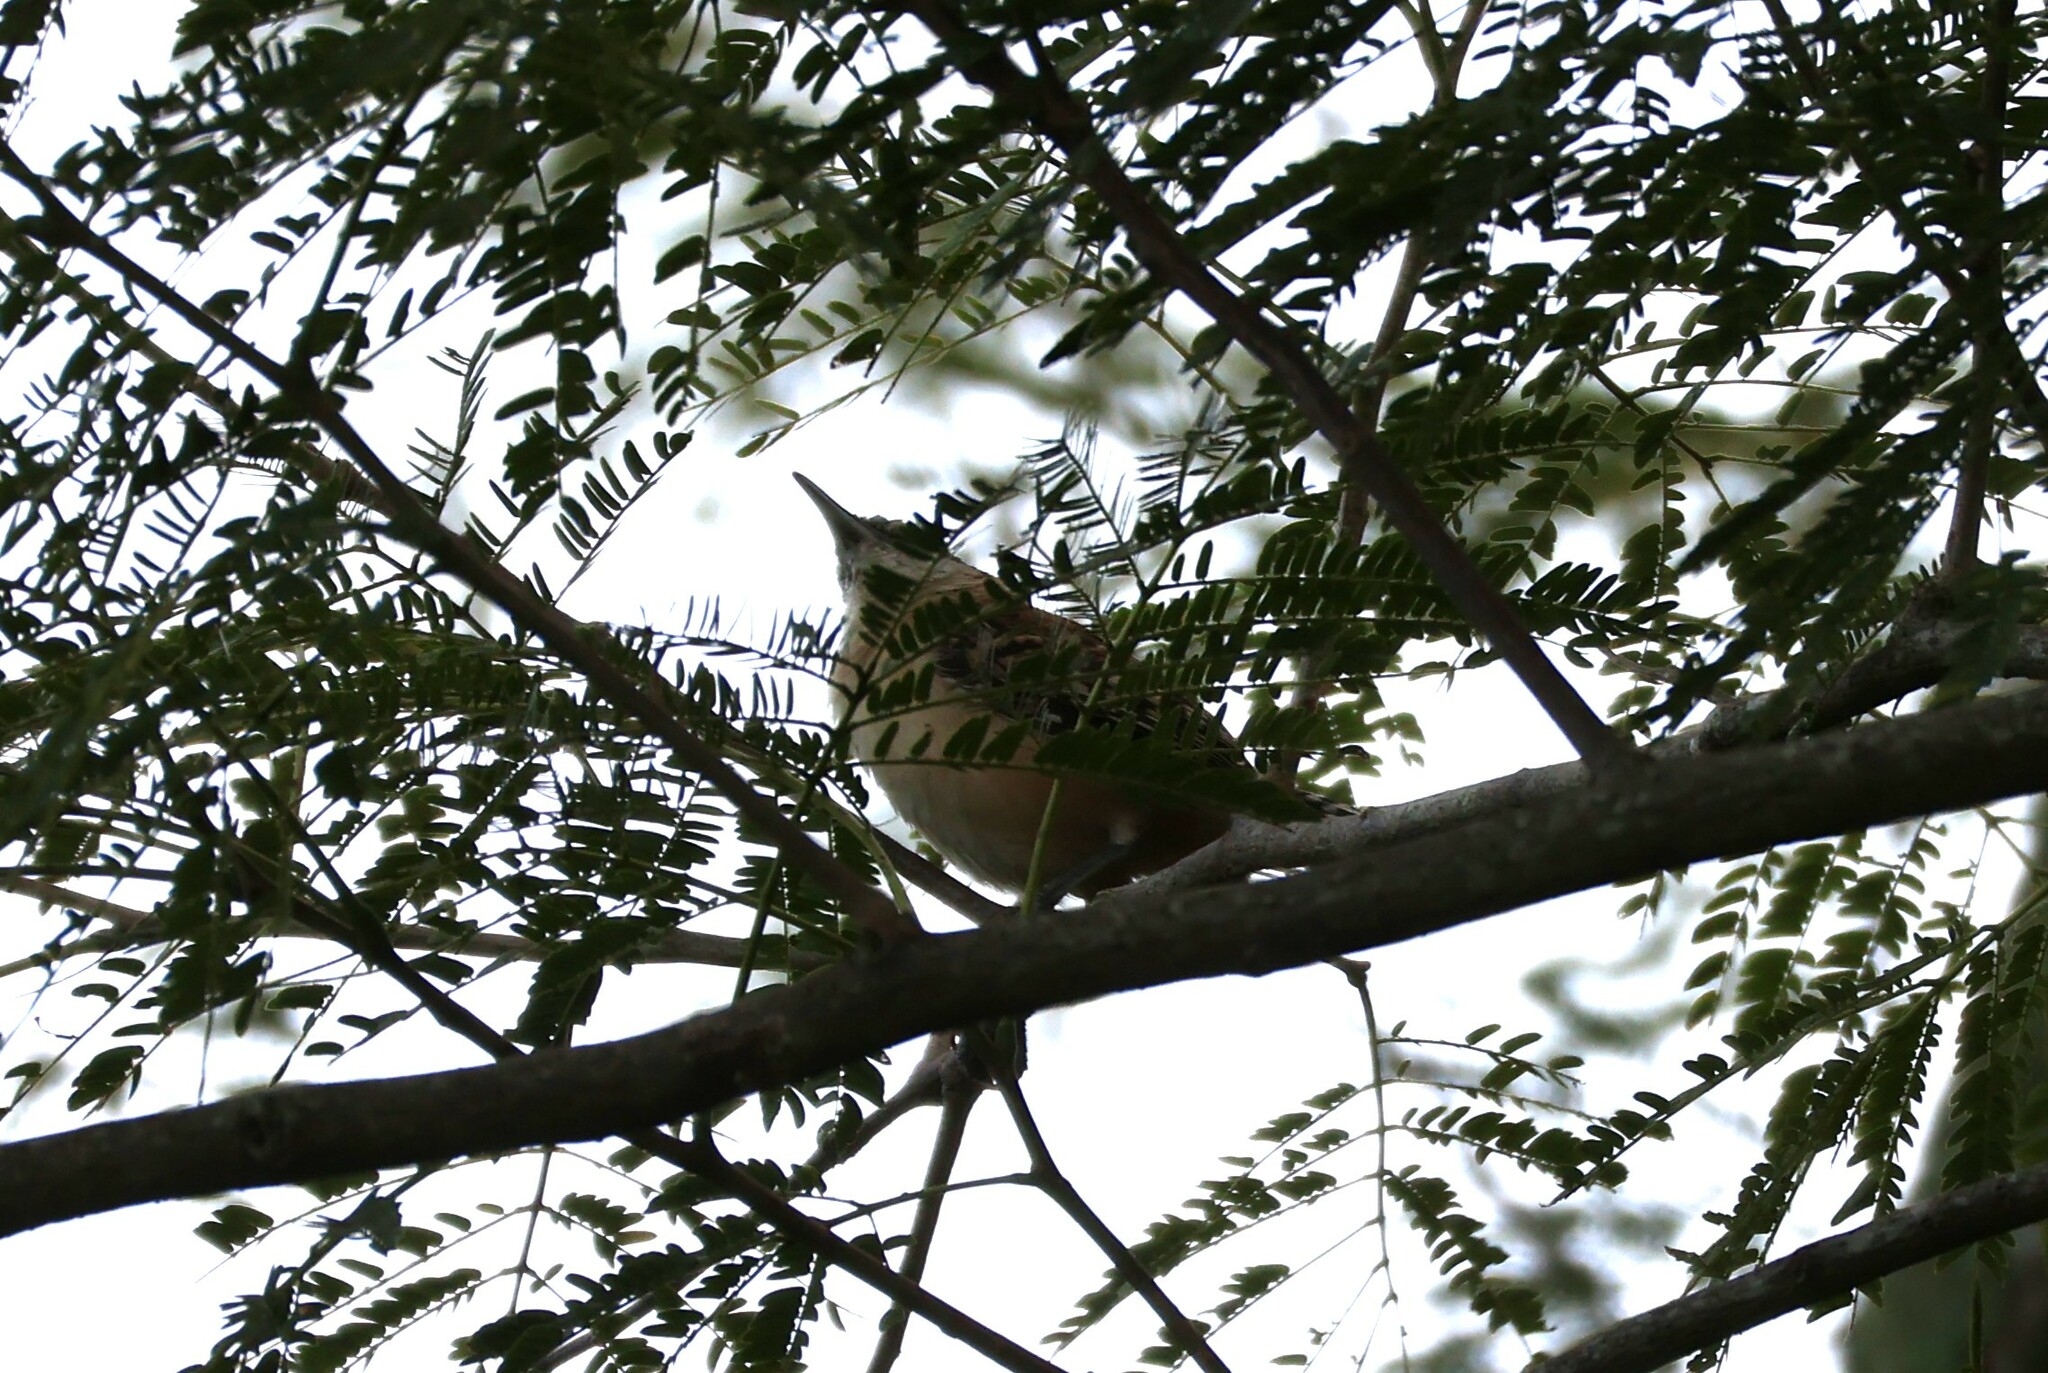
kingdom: Animalia
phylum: Chordata
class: Aves
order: Passeriformes
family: Troglodytidae
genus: Campylorhynchus
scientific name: Campylorhynchus rufinucha
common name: Rufous-naped wren
